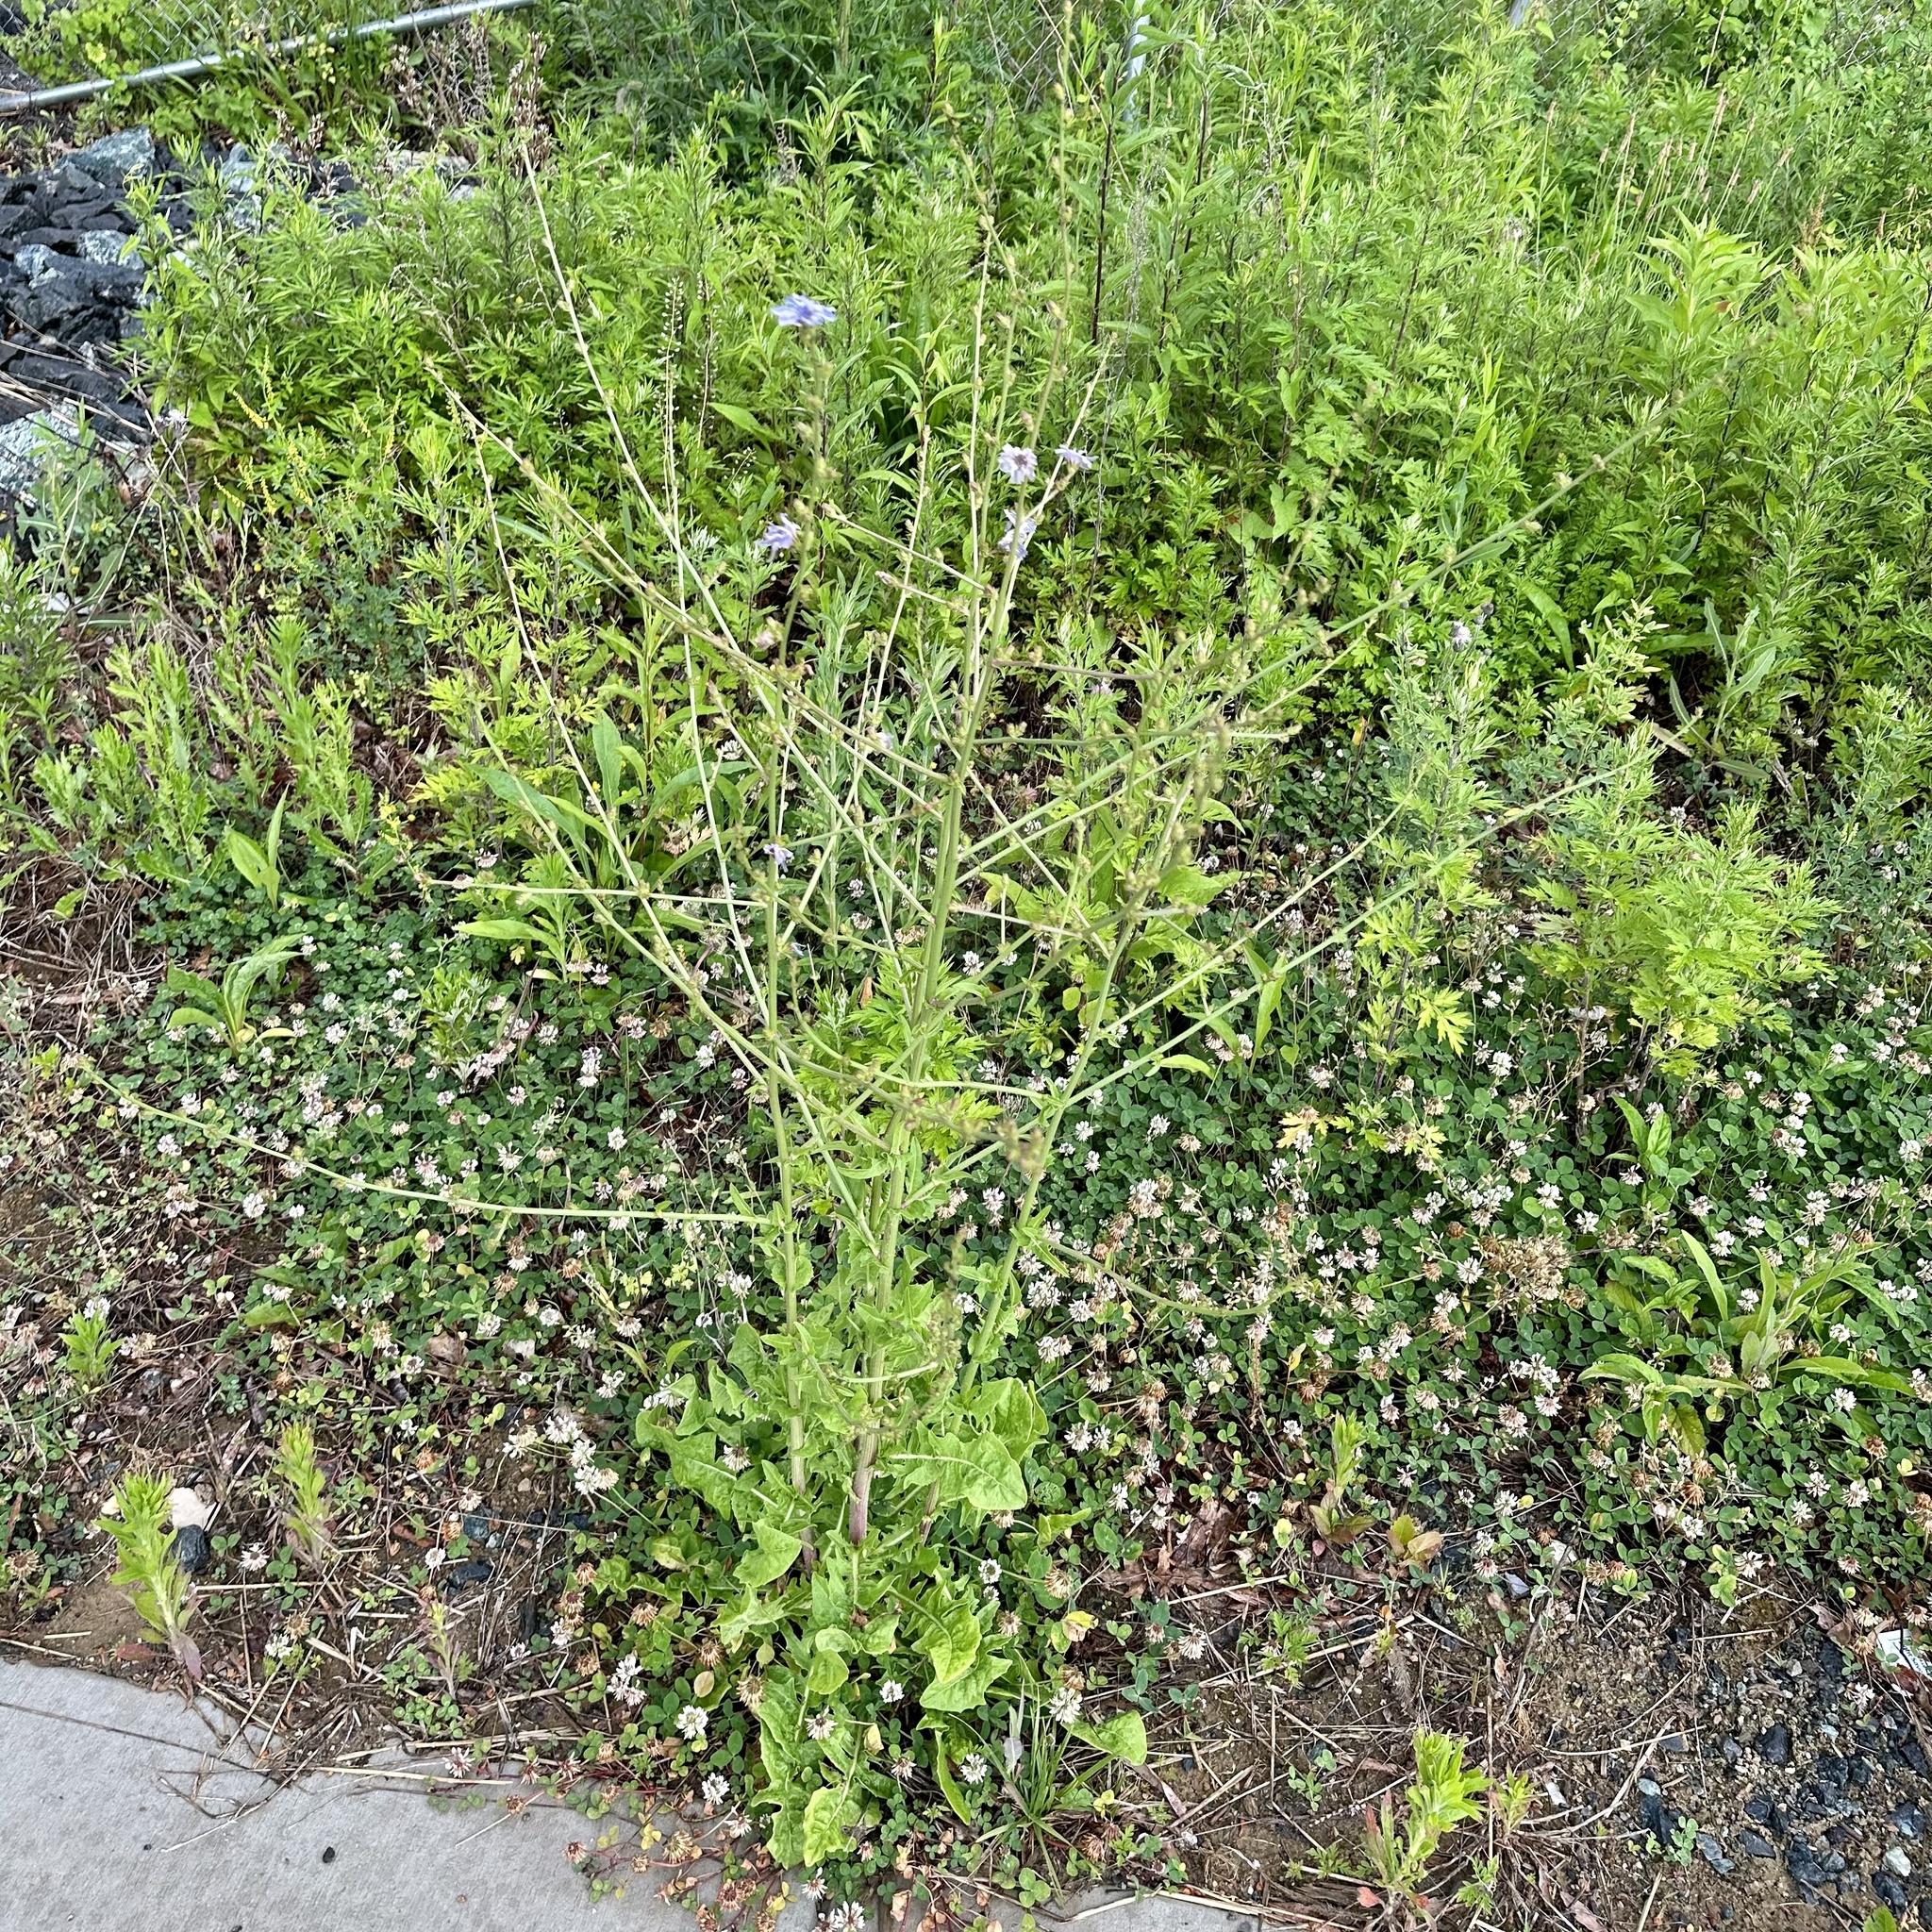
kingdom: Plantae
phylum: Tracheophyta
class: Magnoliopsida
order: Asterales
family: Asteraceae
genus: Cichorium
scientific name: Cichorium intybus
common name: Chicory
